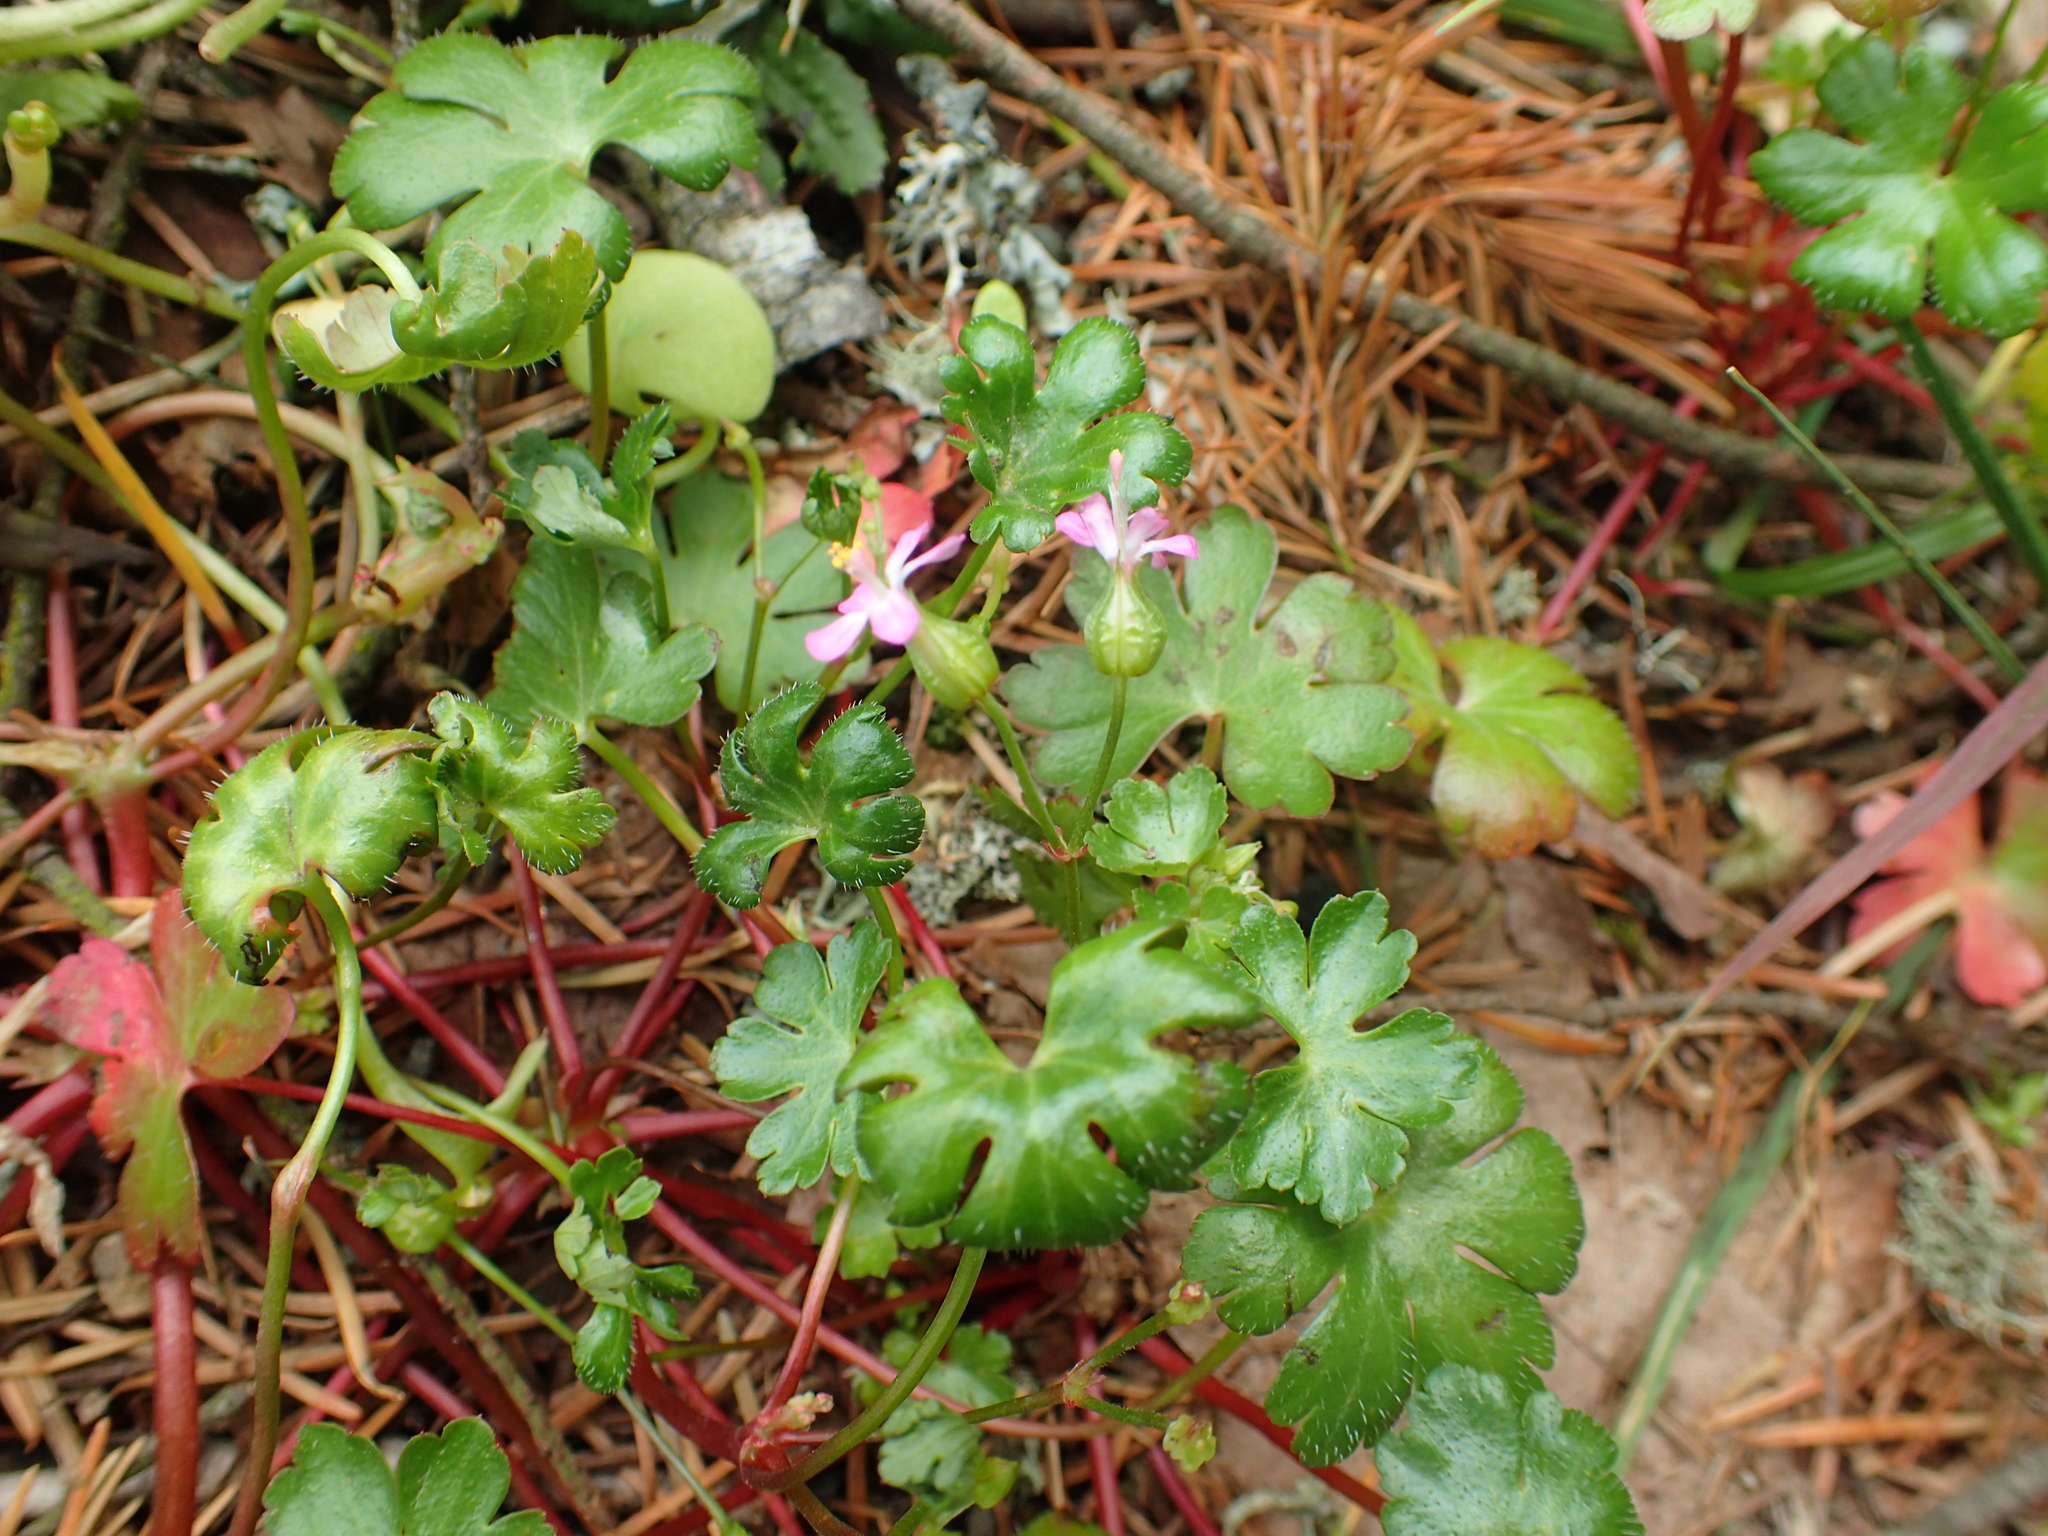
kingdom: Plantae
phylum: Tracheophyta
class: Magnoliopsida
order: Geraniales
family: Geraniaceae
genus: Geranium
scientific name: Geranium lucidum
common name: Shining crane's-bill
